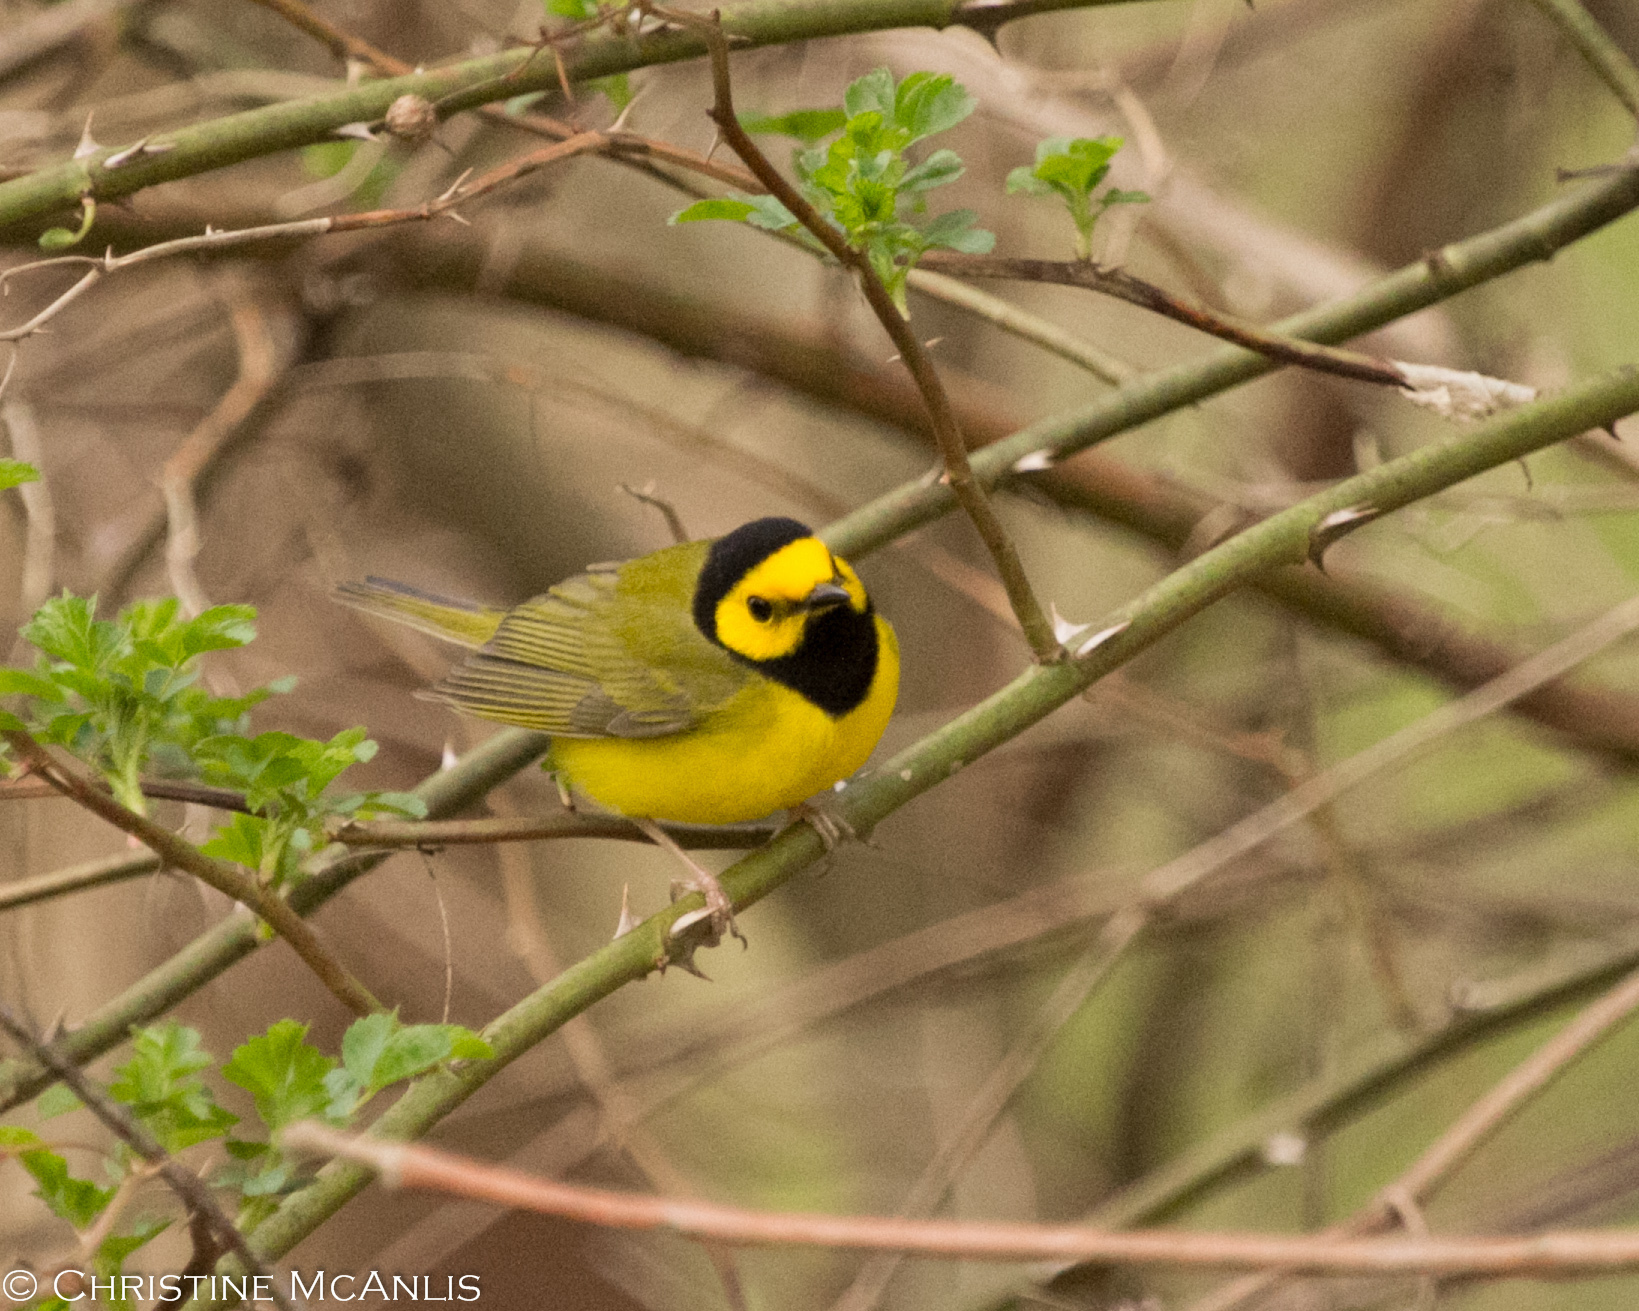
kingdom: Animalia
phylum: Chordata
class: Aves
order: Passeriformes
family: Parulidae
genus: Setophaga
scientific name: Setophaga citrina
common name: Hooded warbler
